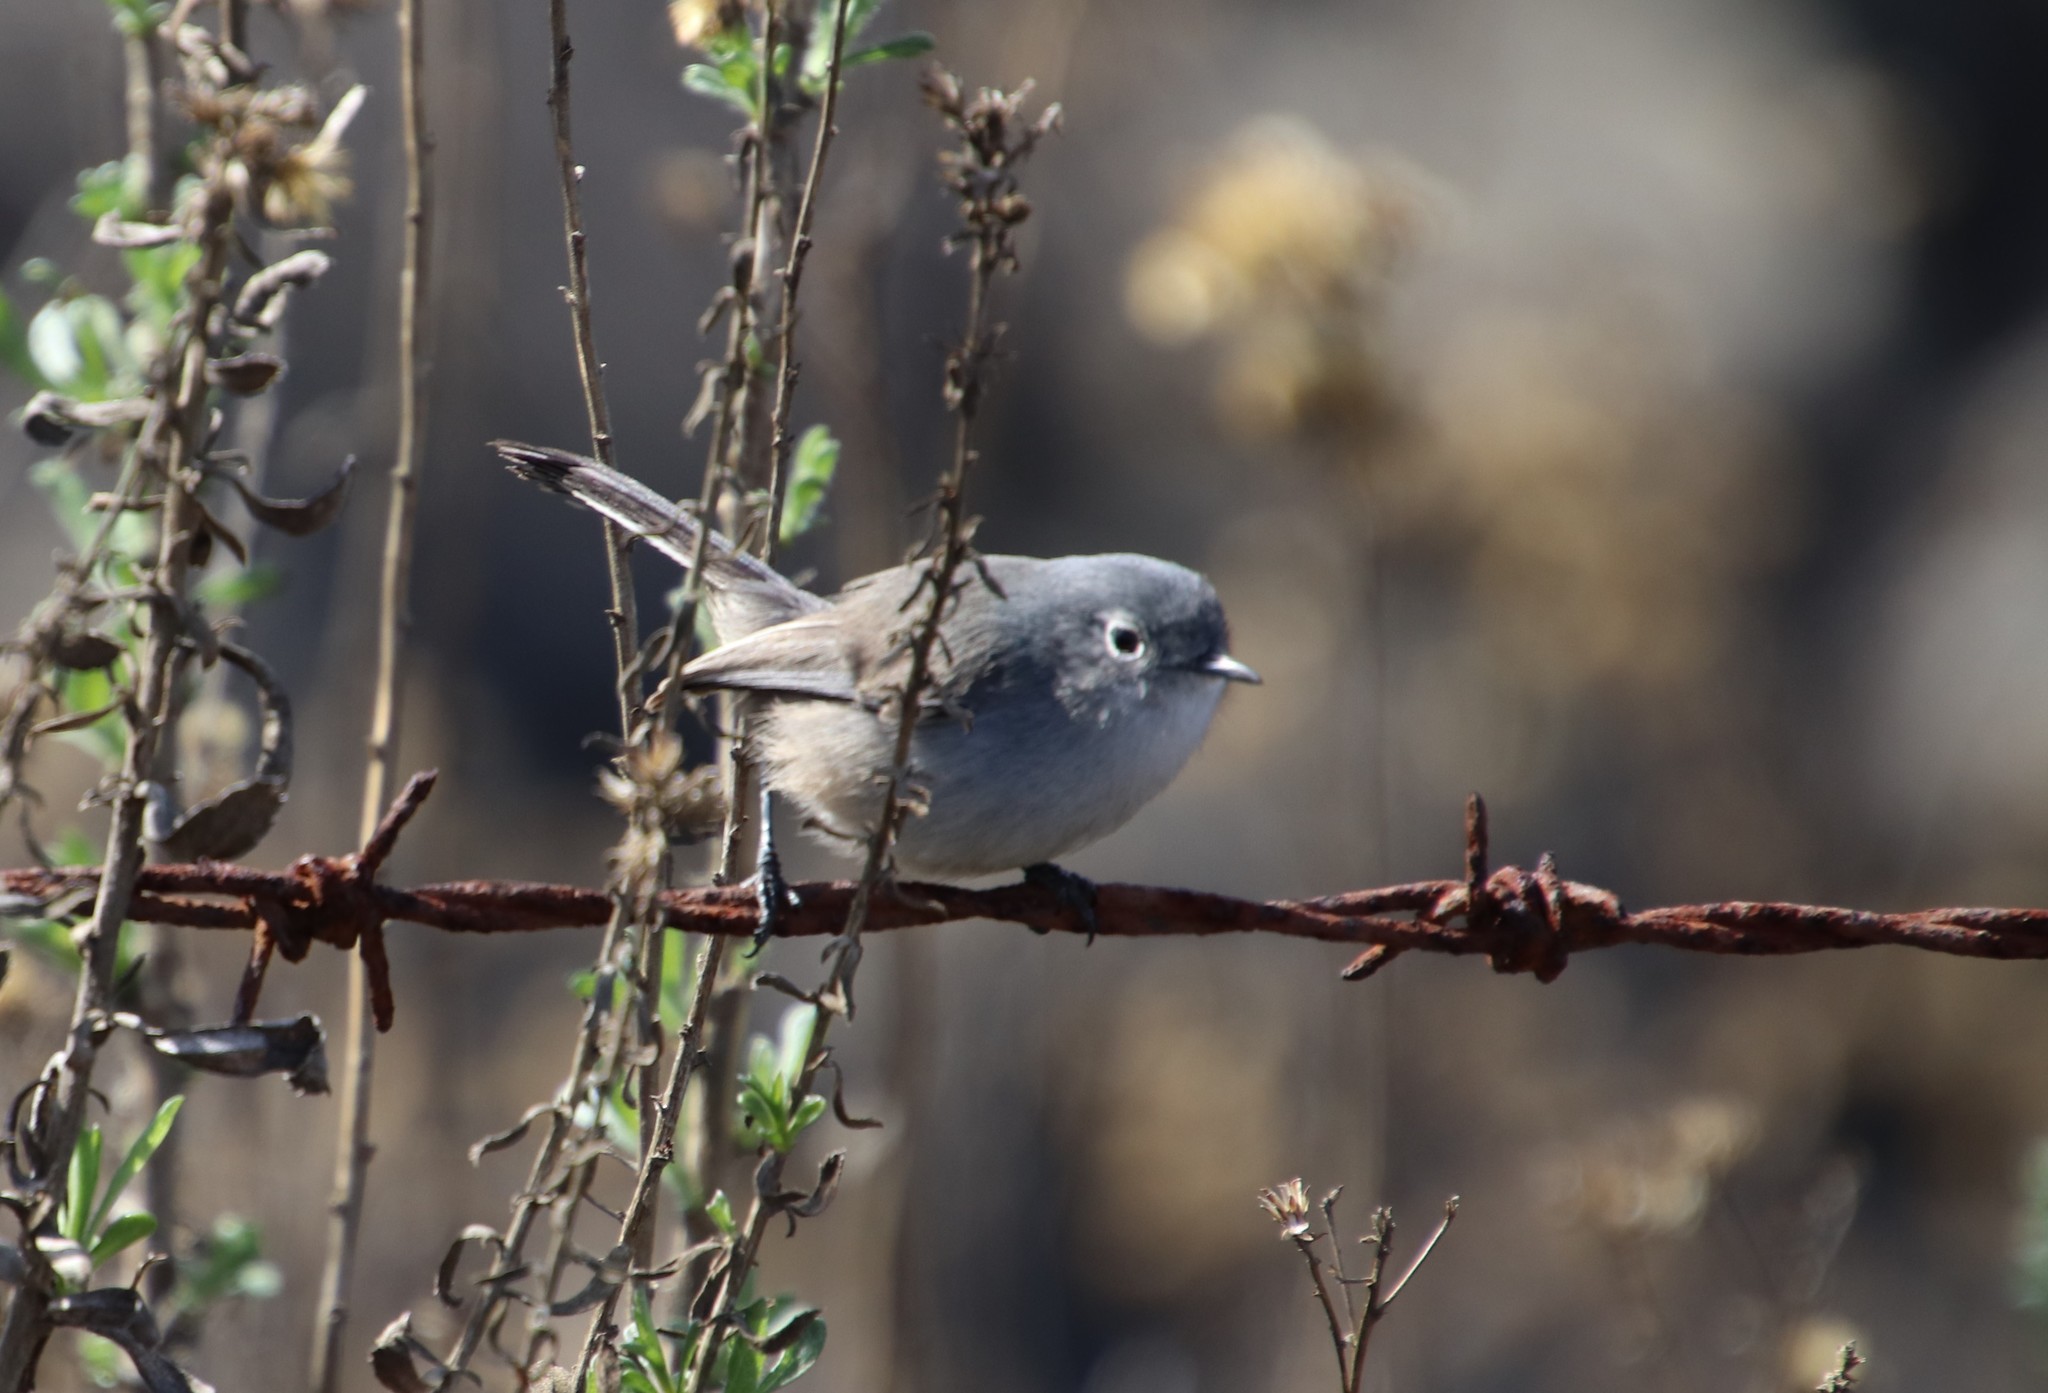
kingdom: Animalia
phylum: Chordata
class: Aves
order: Passeriformes
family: Polioptilidae
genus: Polioptila
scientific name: Polioptila californica
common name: California gnatcatcher
